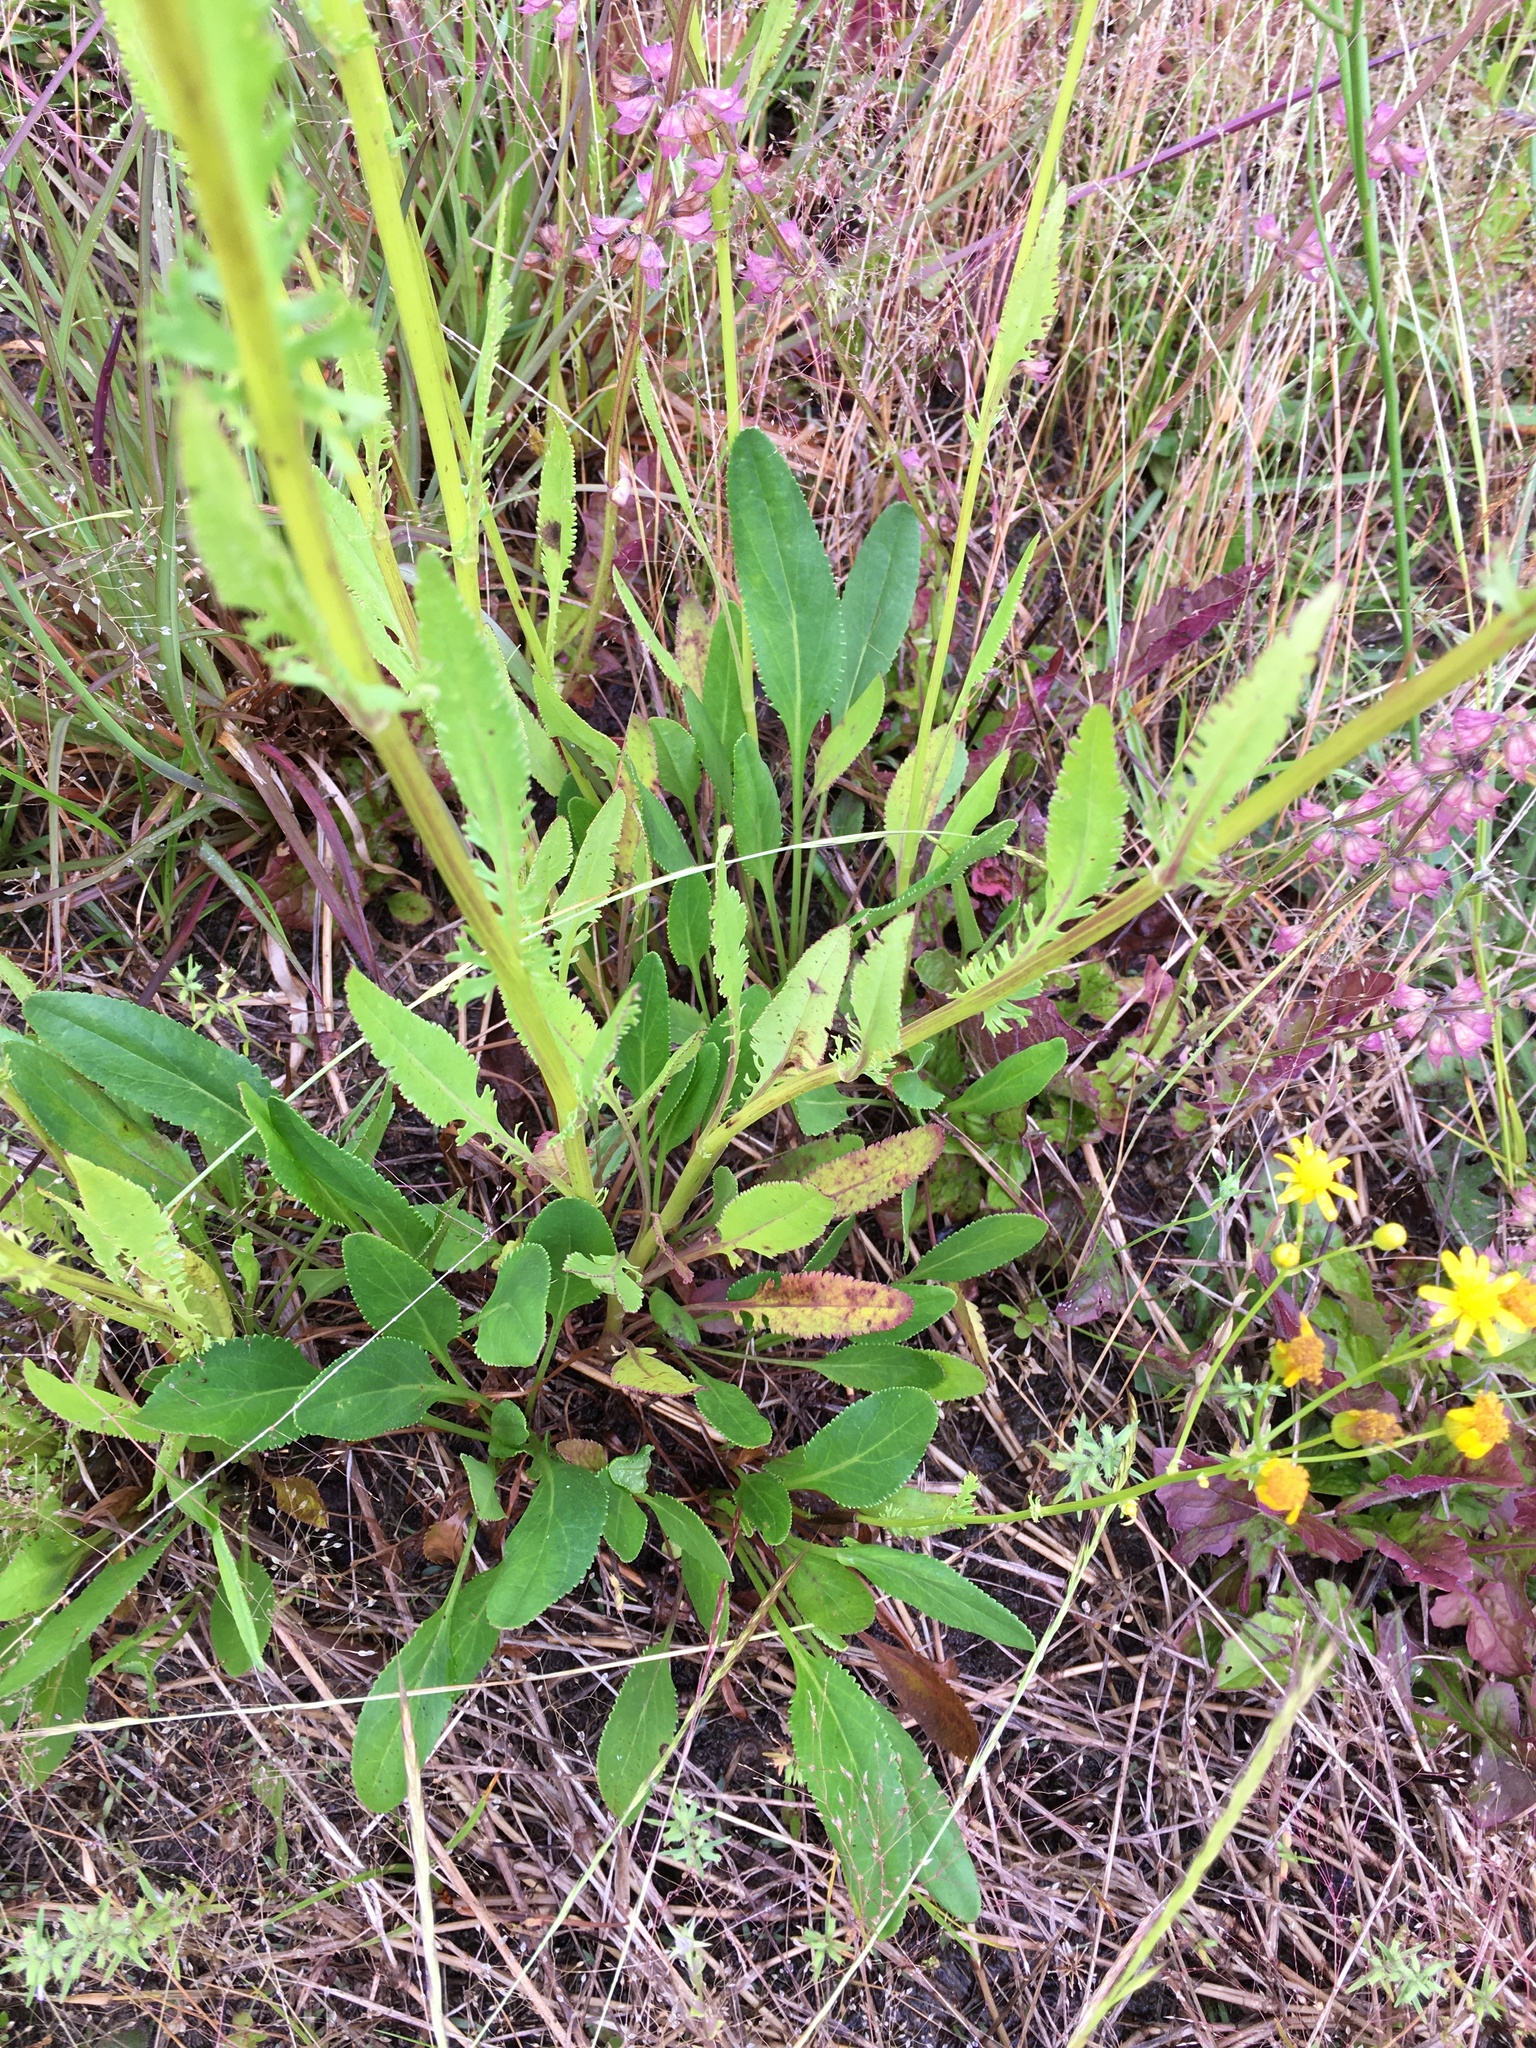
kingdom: Plantae
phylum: Tracheophyta
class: Magnoliopsida
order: Asterales
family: Asteraceae
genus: Packera
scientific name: Packera anonyma
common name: Small ragwort
